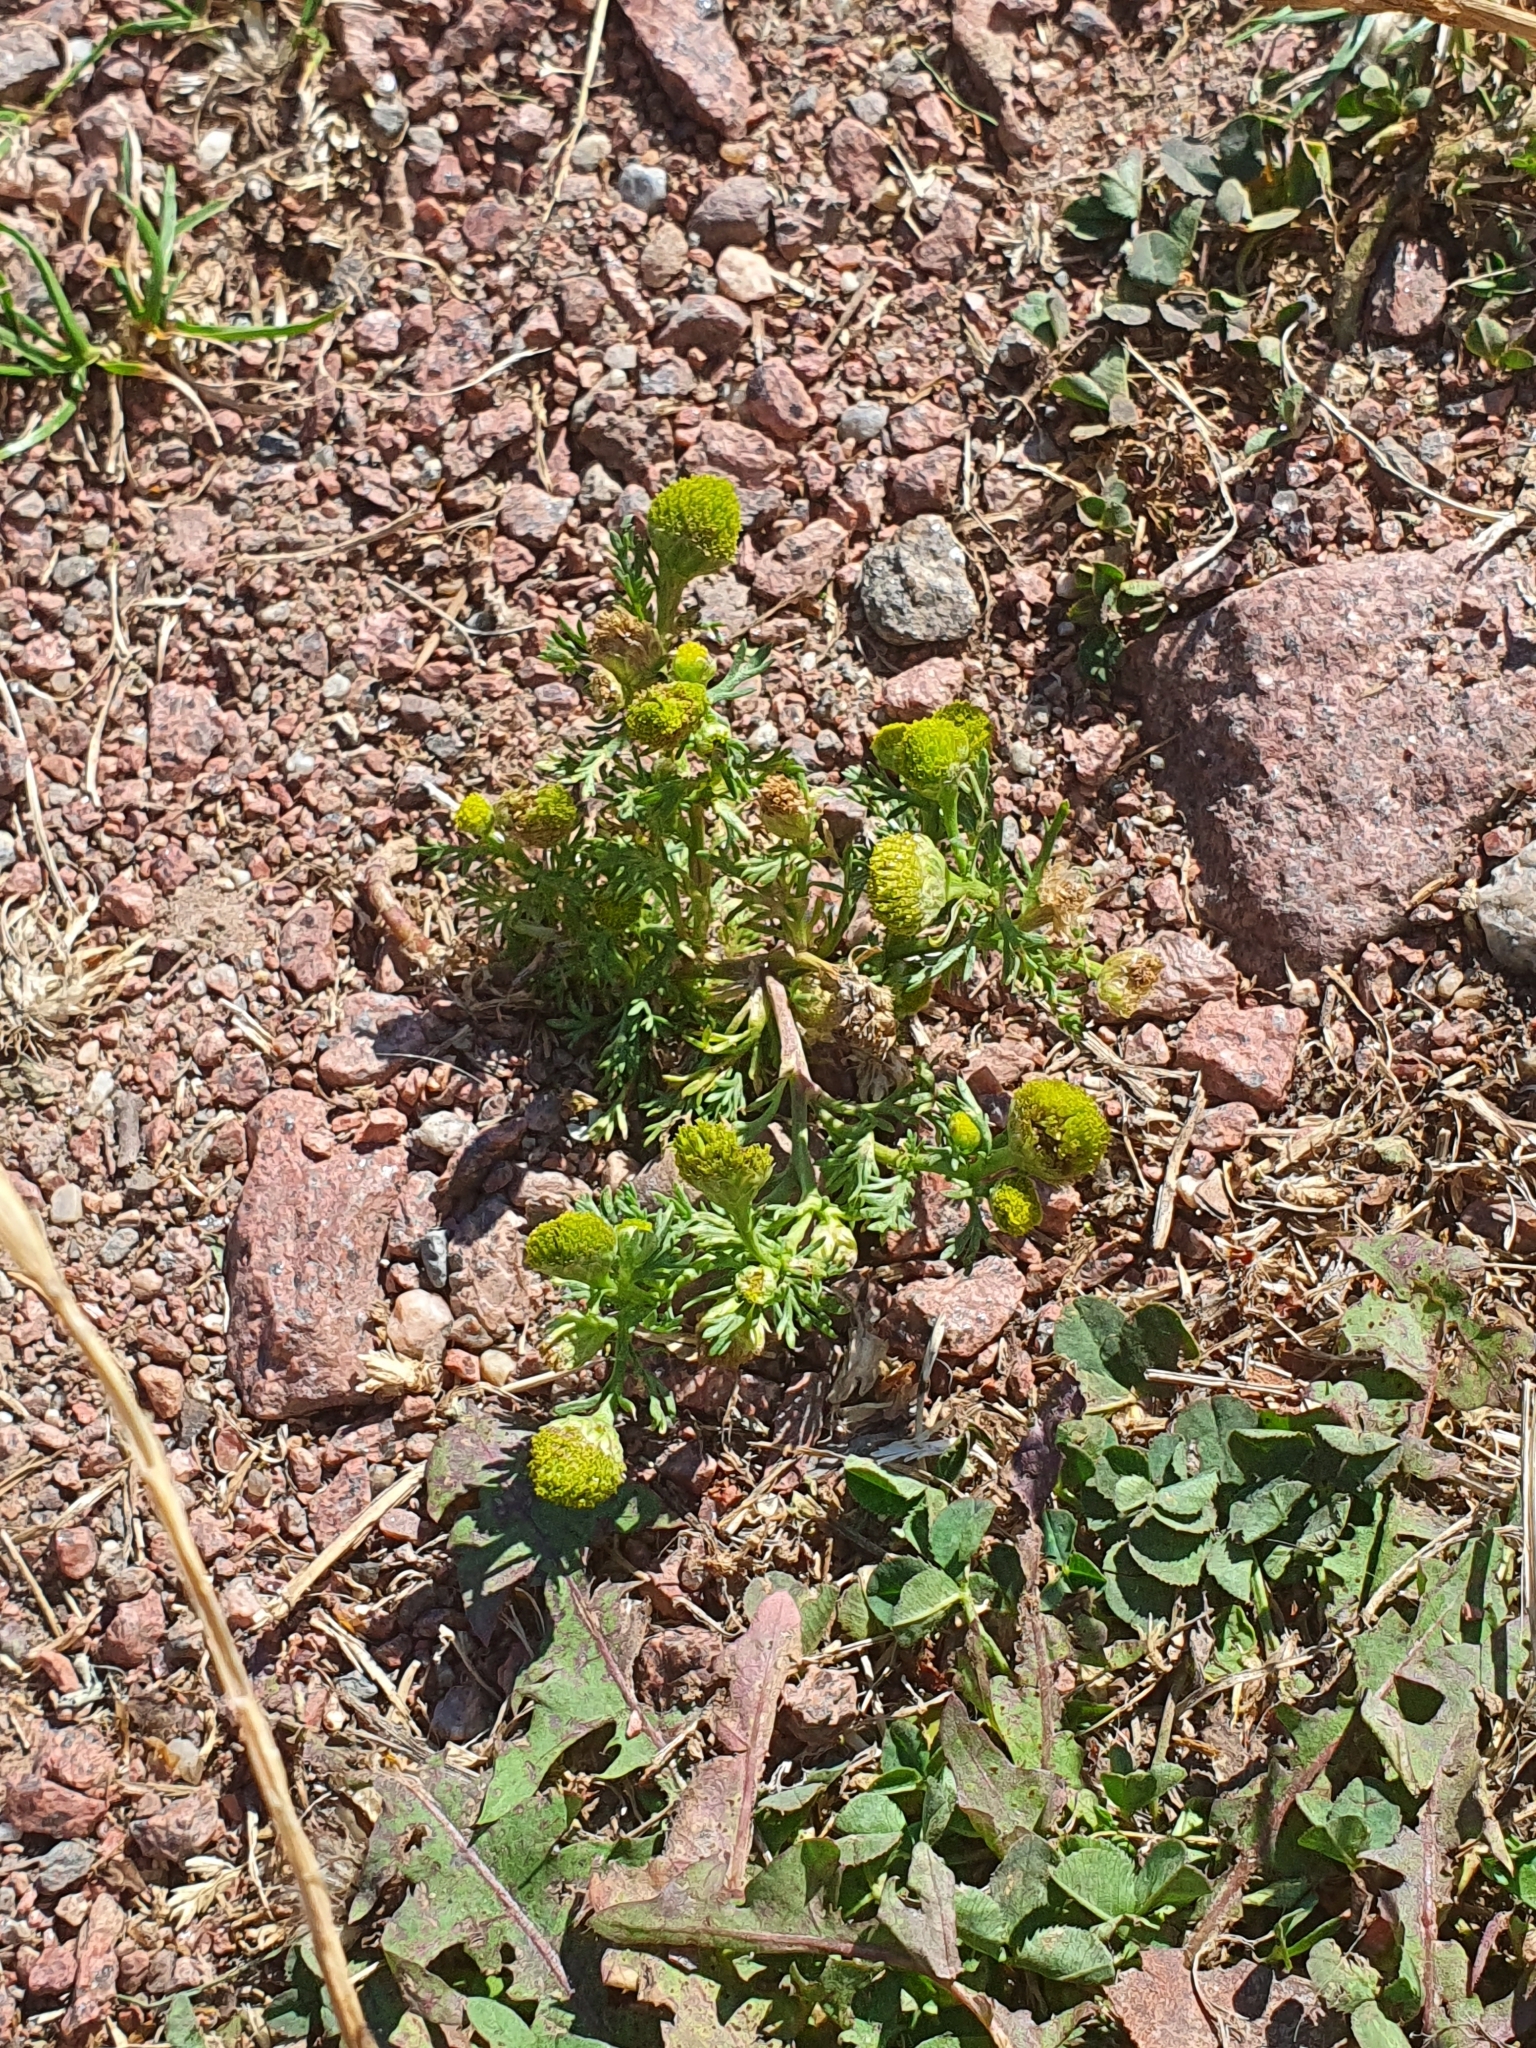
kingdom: Plantae
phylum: Tracheophyta
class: Magnoliopsida
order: Asterales
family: Asteraceae
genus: Matricaria
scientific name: Matricaria discoidea
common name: Disc mayweed
